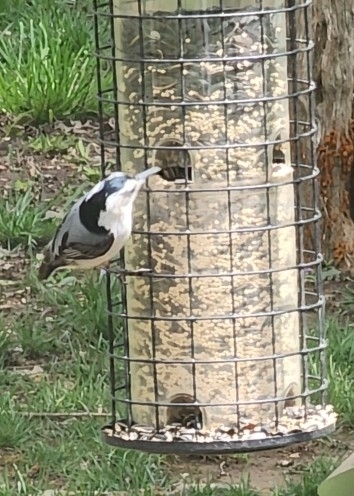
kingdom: Animalia
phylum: Chordata
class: Aves
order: Passeriformes
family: Sittidae
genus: Sitta
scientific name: Sitta carolinensis
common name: White-breasted nuthatch
